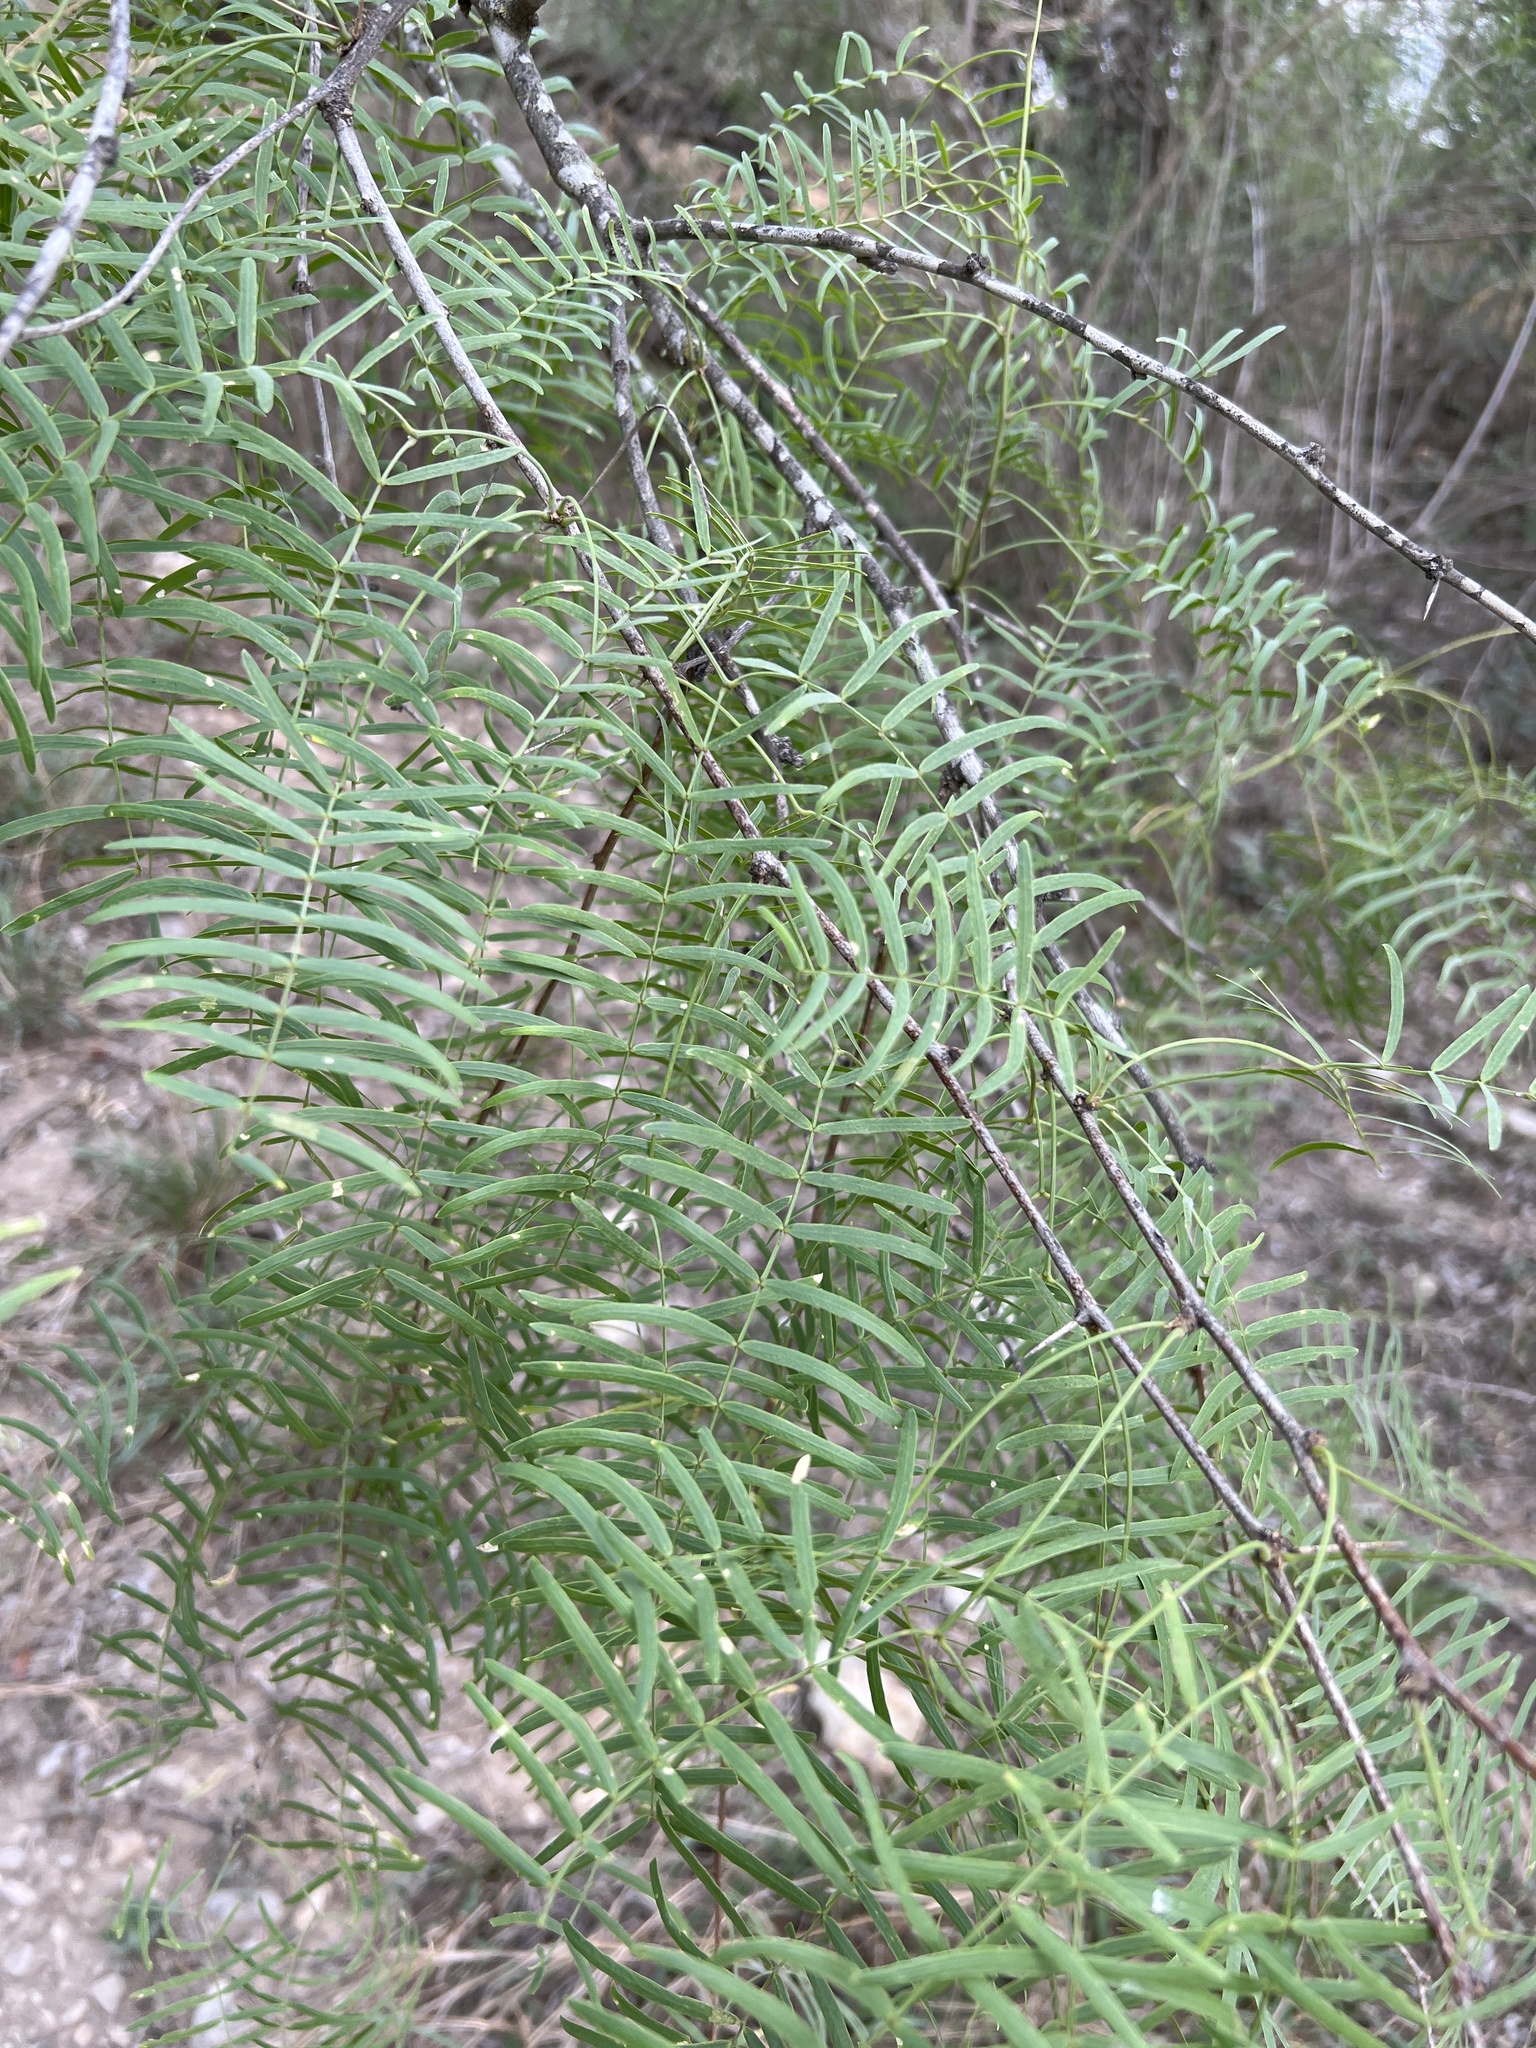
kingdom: Plantae
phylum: Tracheophyta
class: Magnoliopsida
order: Fabales
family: Fabaceae
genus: Prosopis
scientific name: Prosopis glandulosa
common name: Honey mesquite
